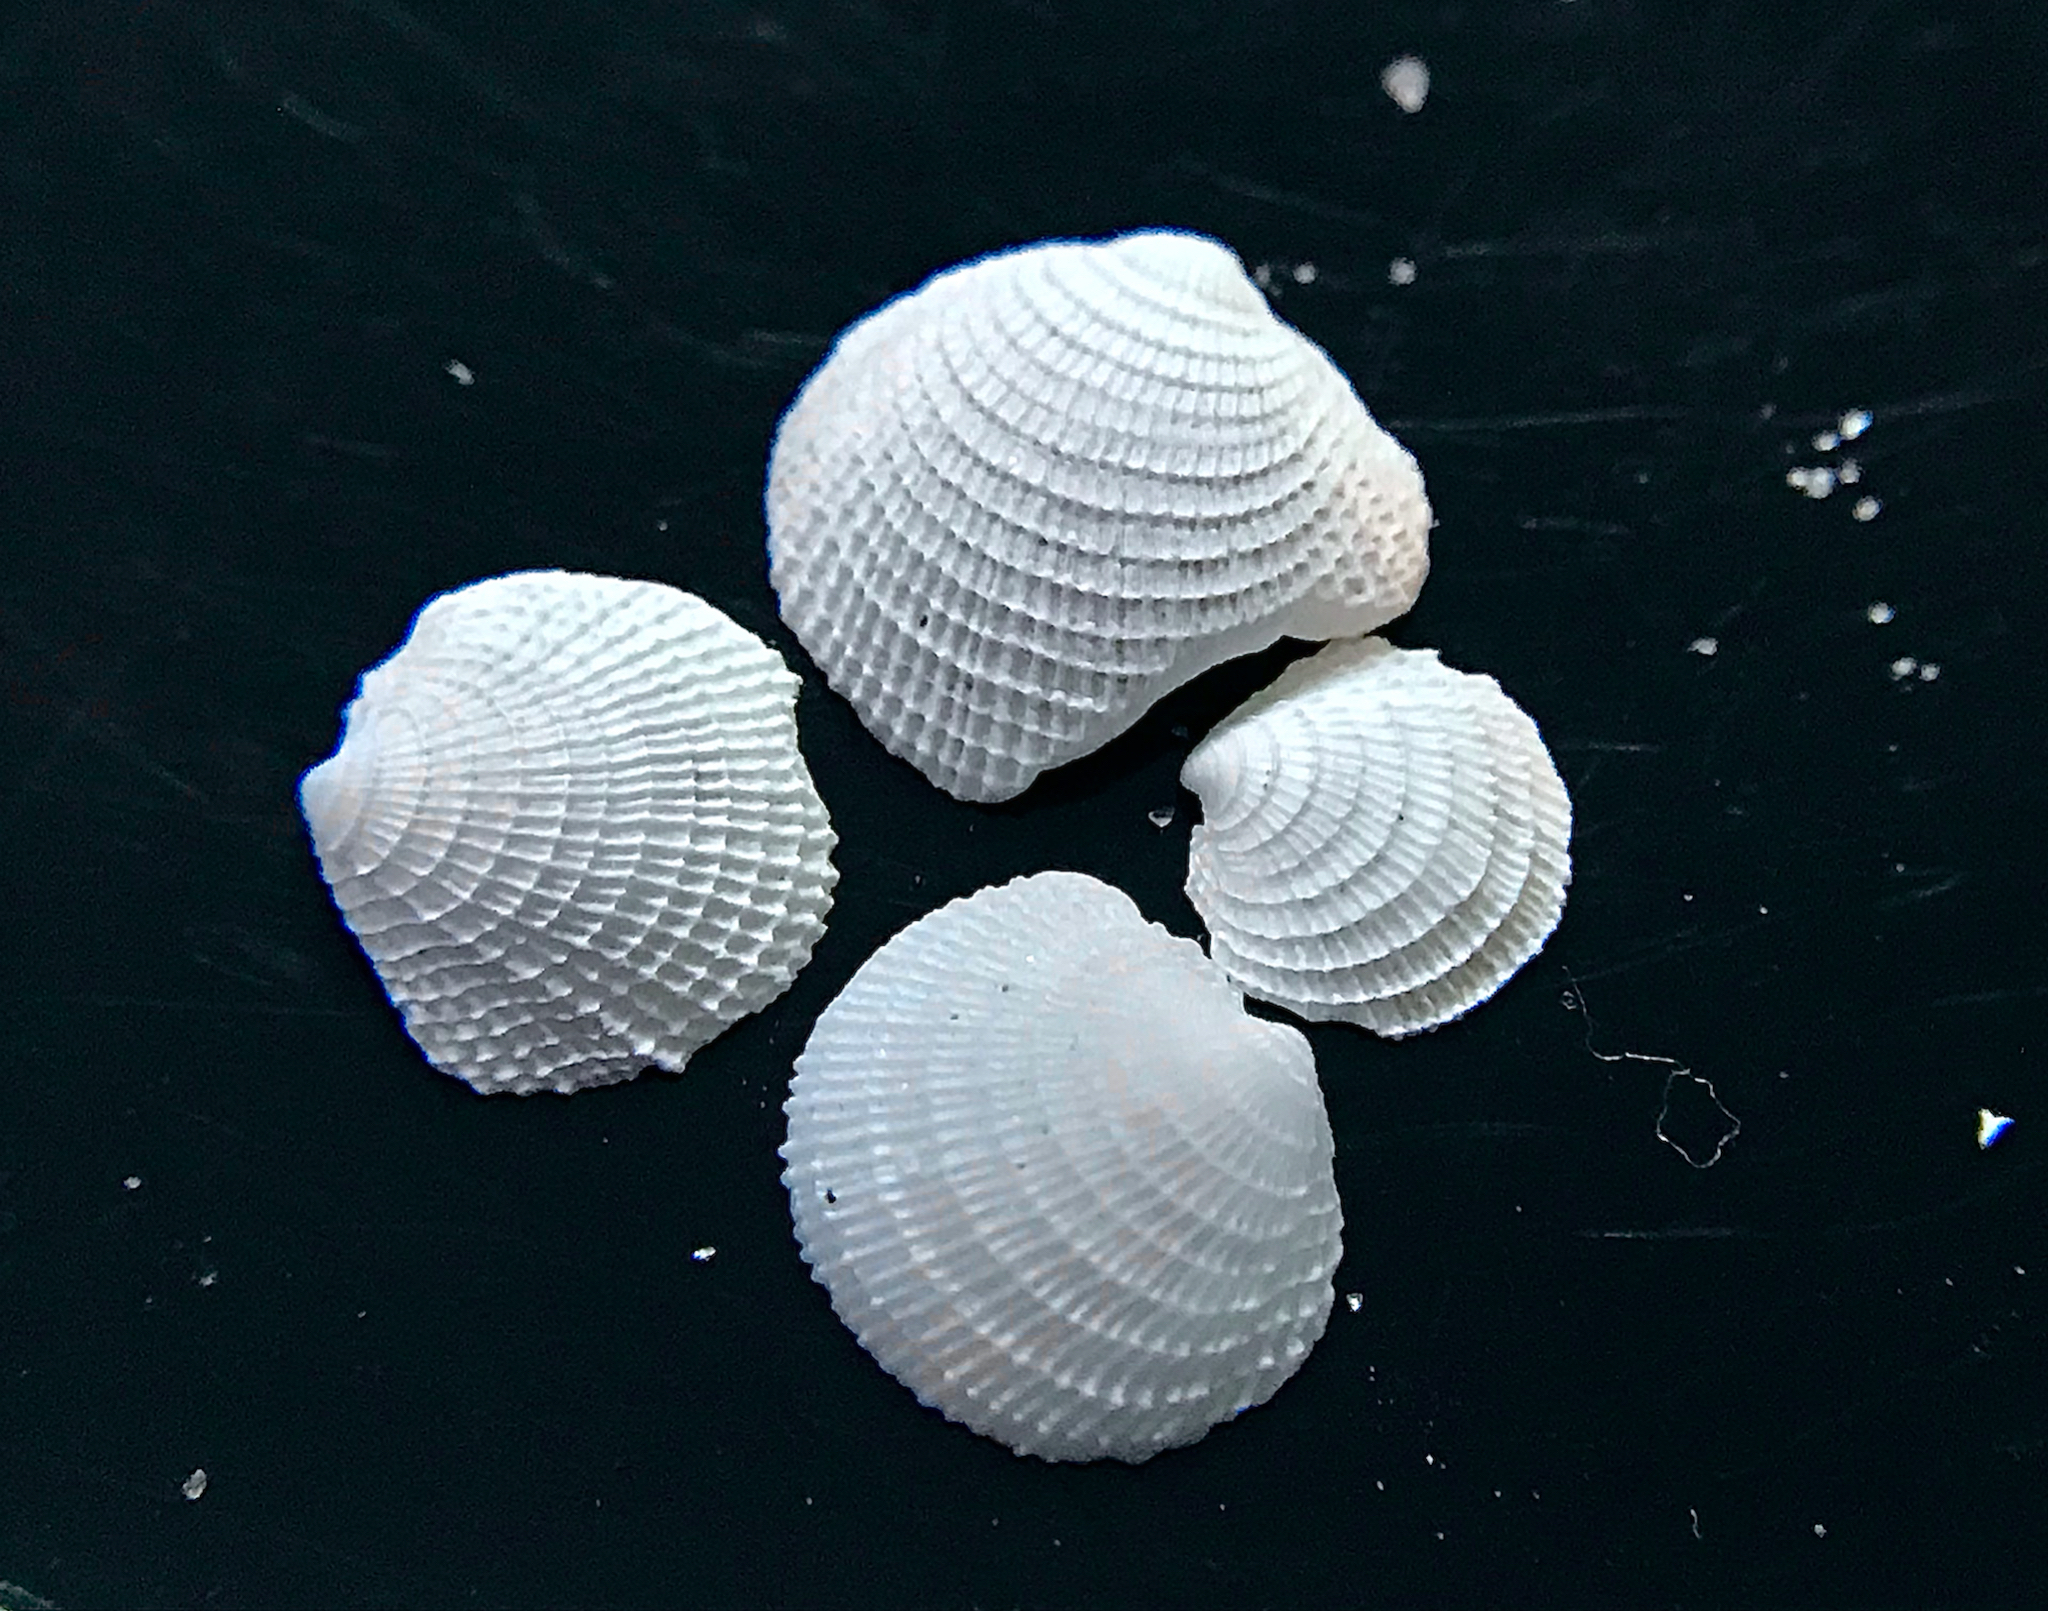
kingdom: Animalia
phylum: Mollusca
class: Bivalvia
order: Lucinida
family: Lucinidae
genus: Lucinisca
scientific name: Lucinisca nassula
